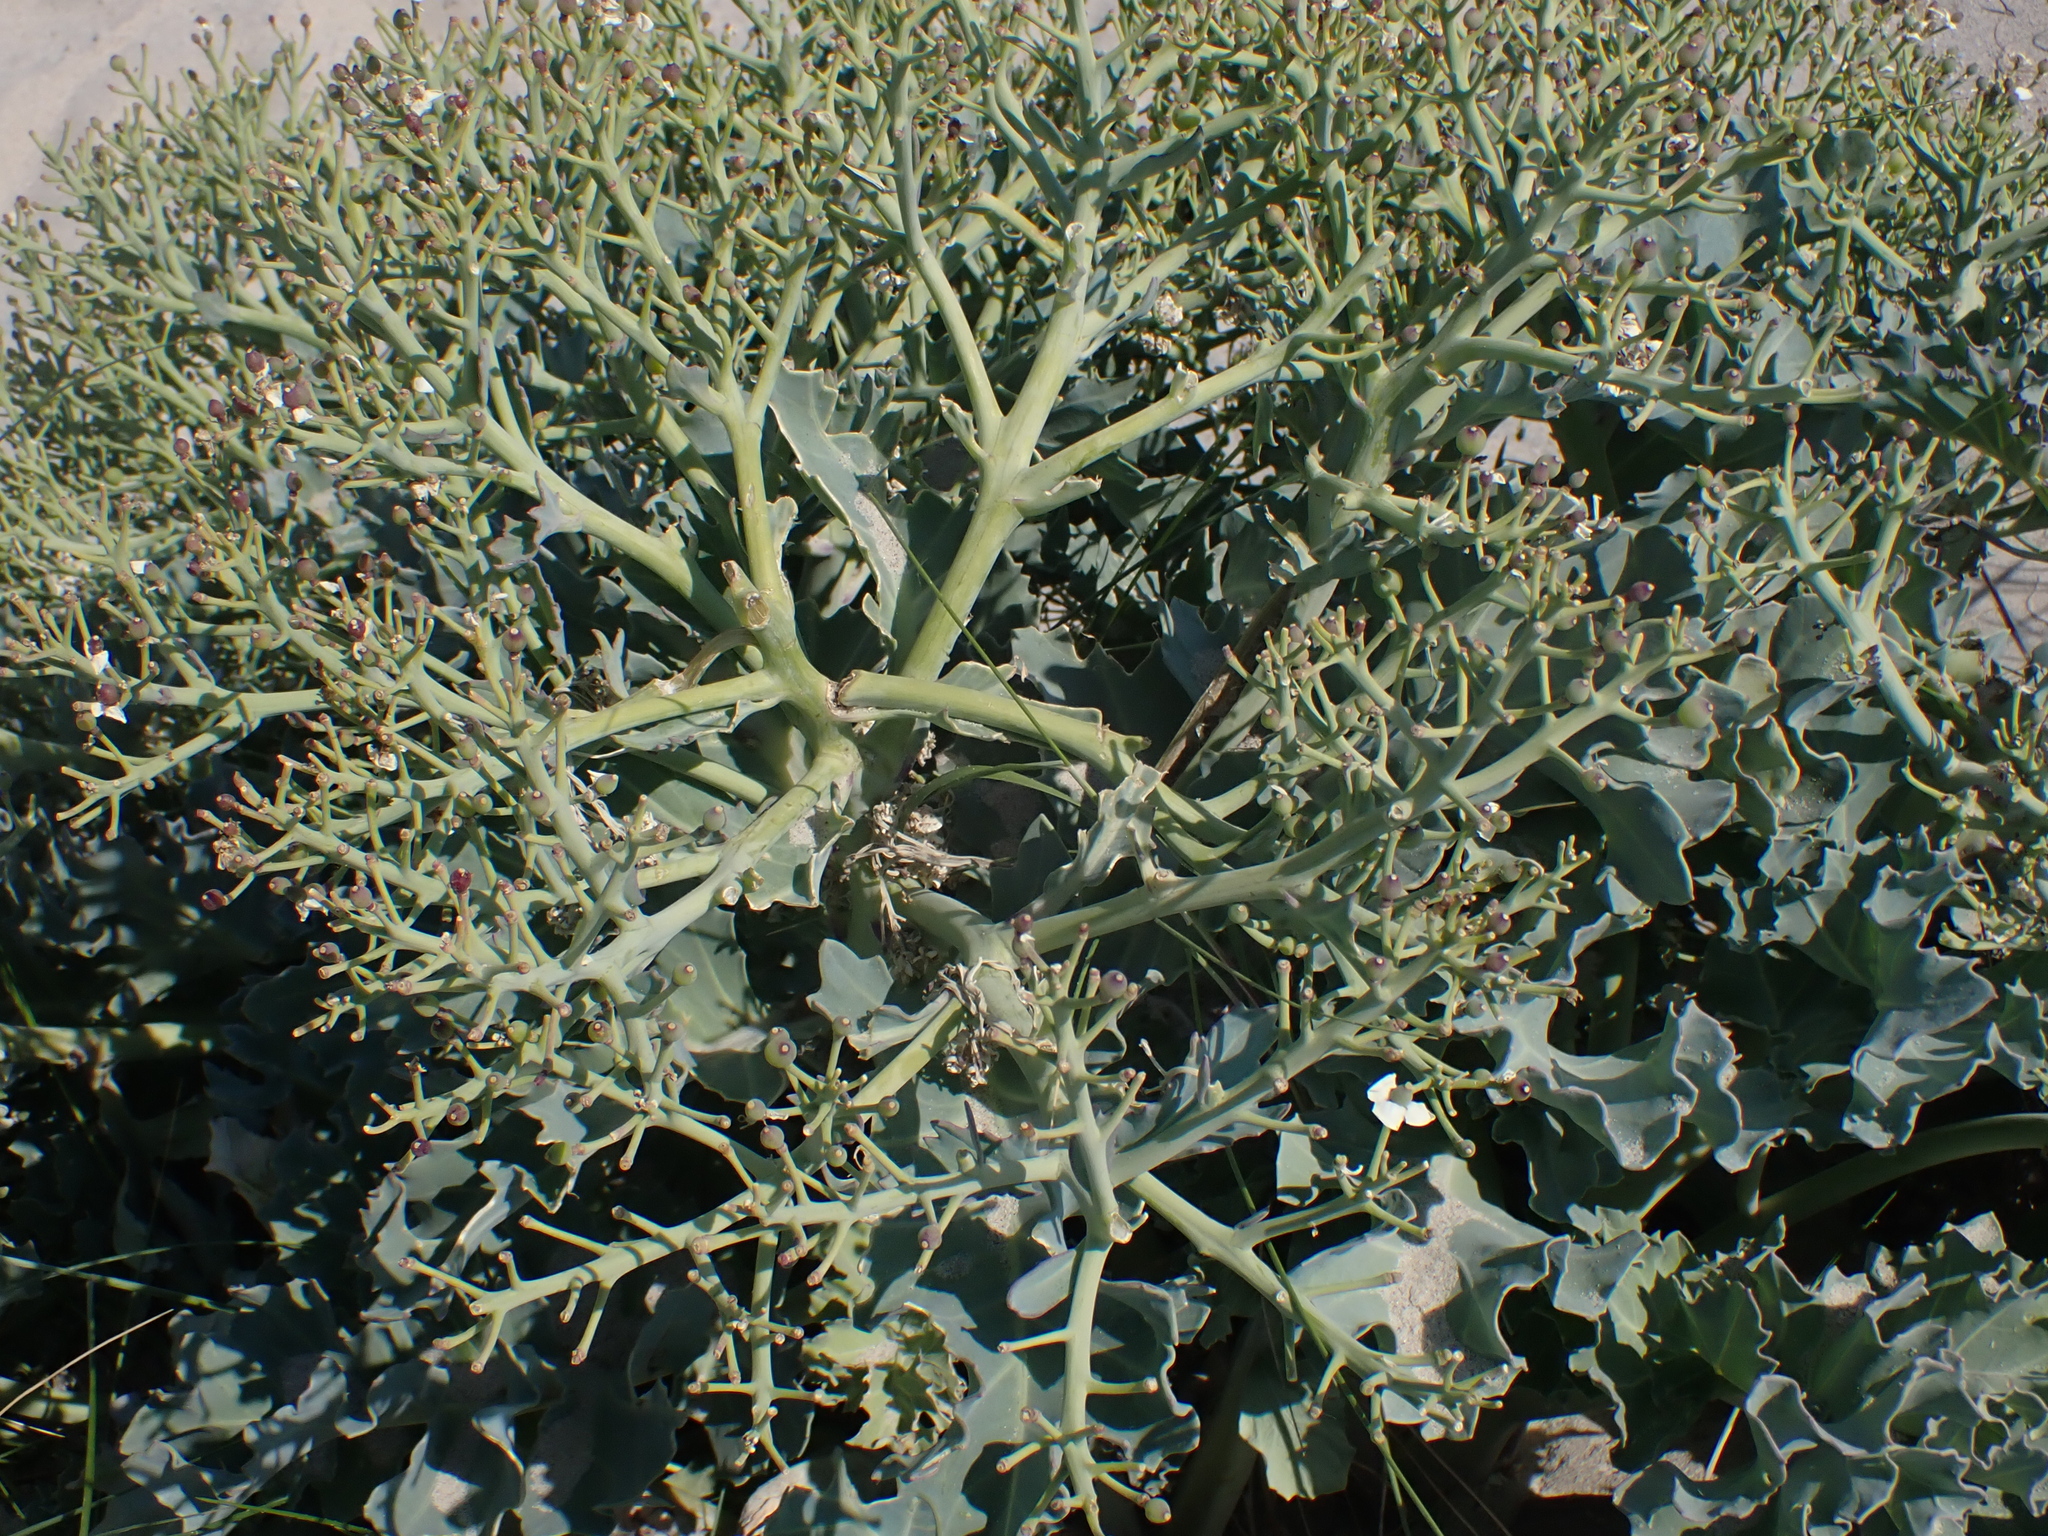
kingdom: Plantae
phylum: Tracheophyta
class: Magnoliopsida
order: Brassicales
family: Brassicaceae
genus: Crambe
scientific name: Crambe maritima
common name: Sea-kale
